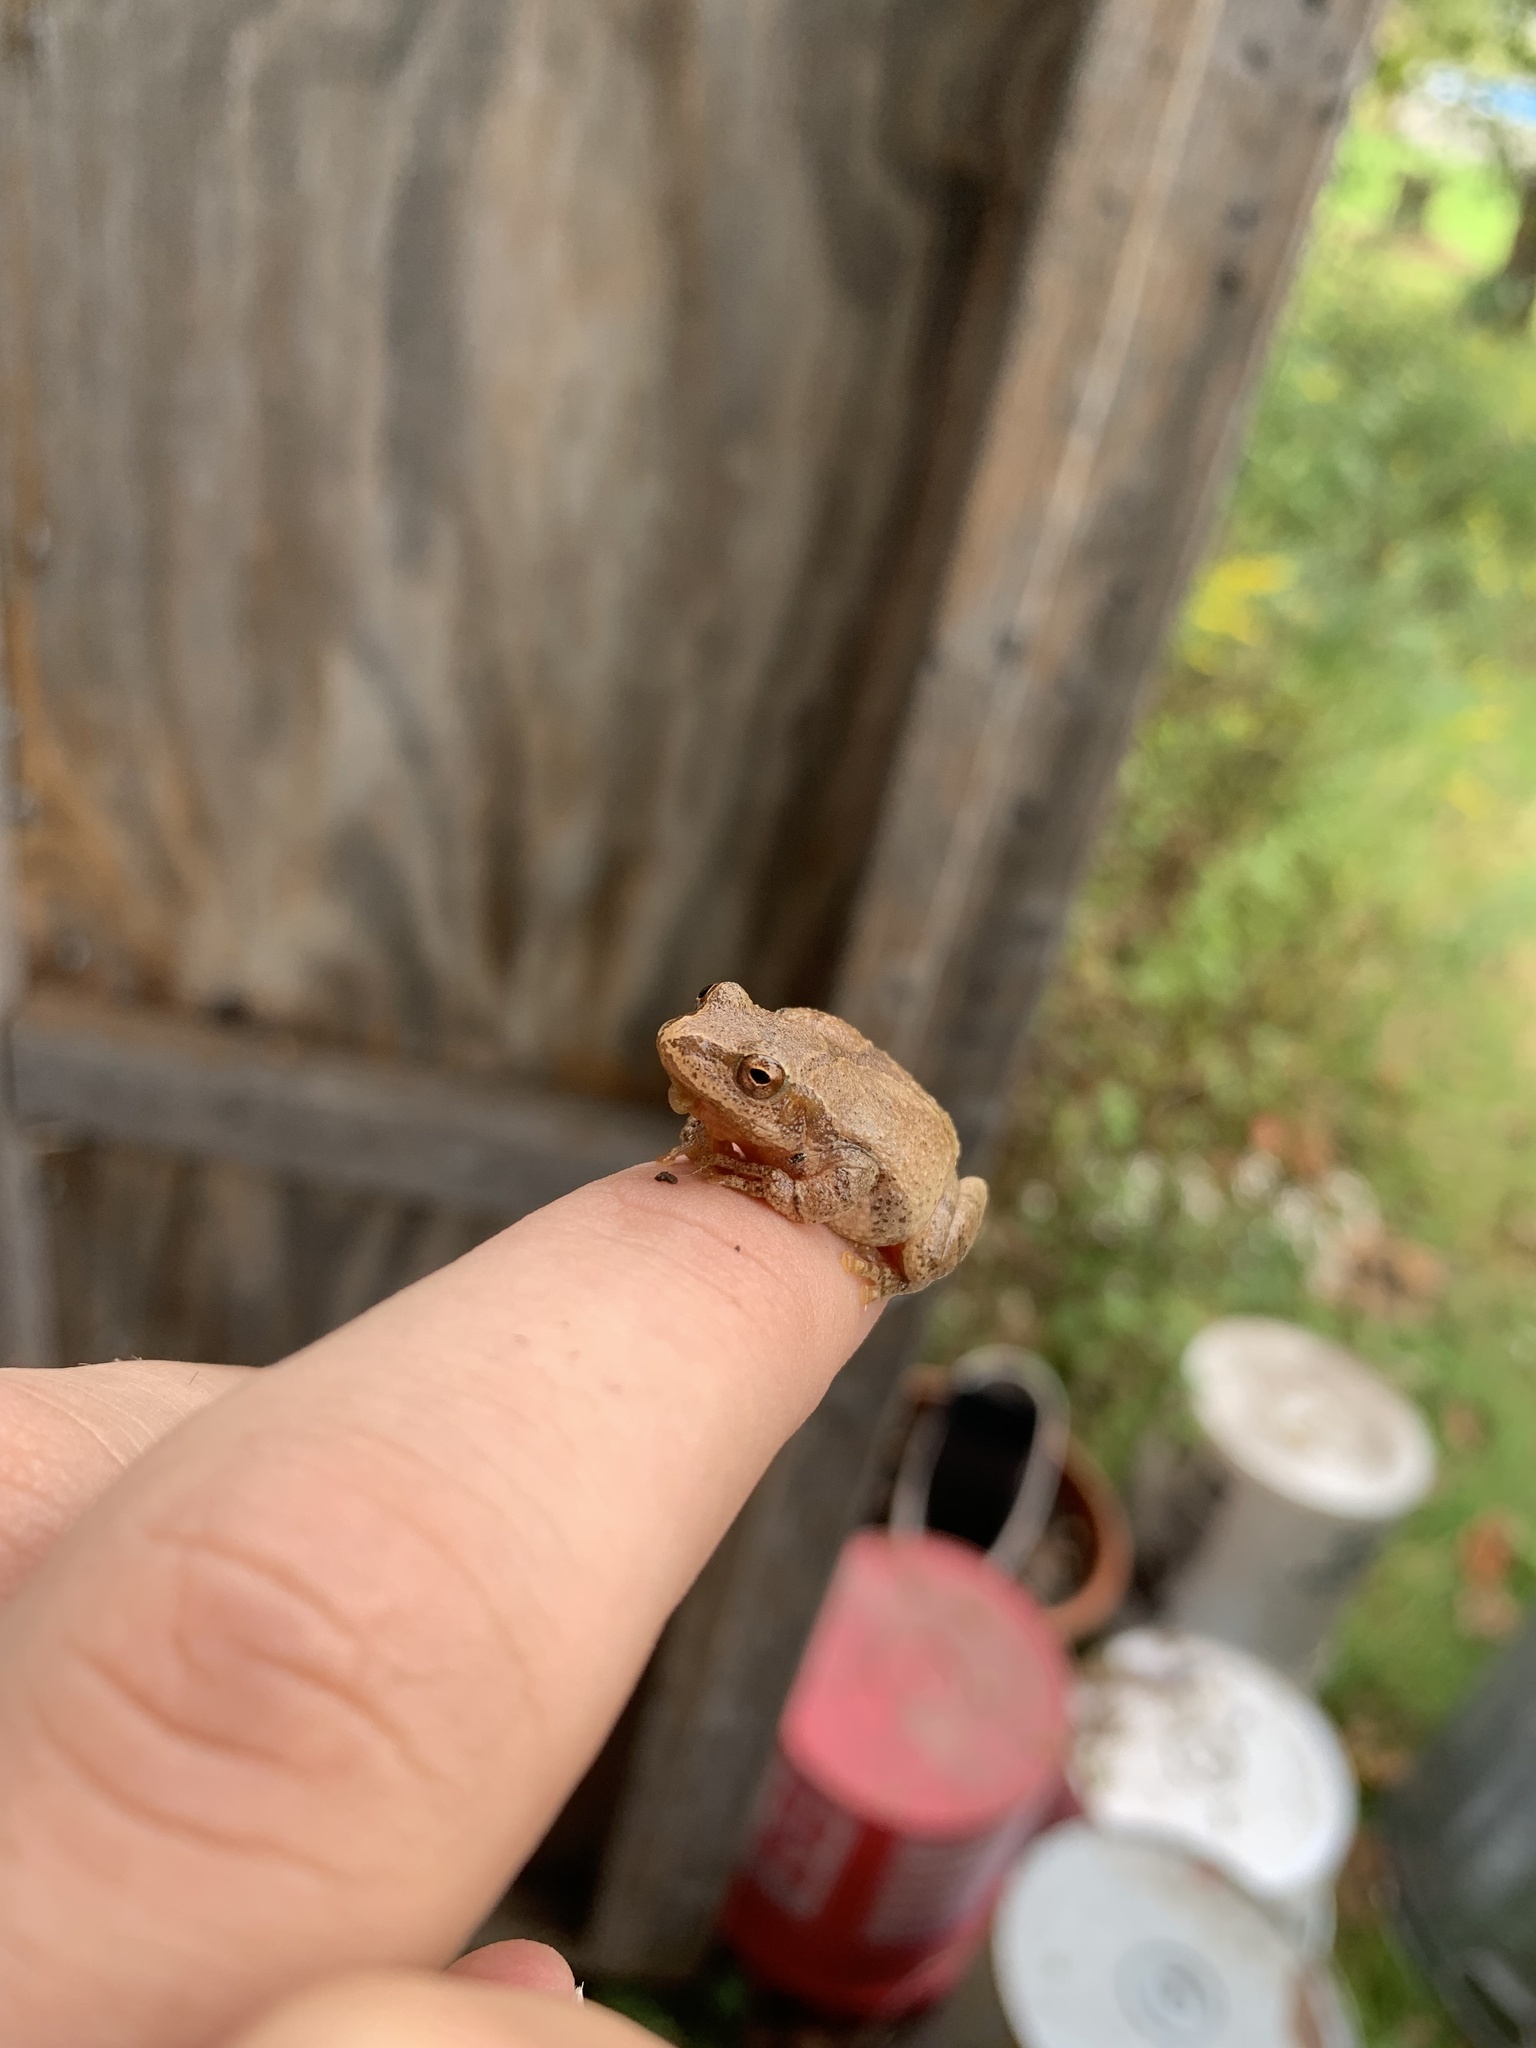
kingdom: Animalia
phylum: Chordata
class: Amphibia
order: Anura
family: Hylidae
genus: Pseudacris
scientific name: Pseudacris crucifer
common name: Spring peeper
